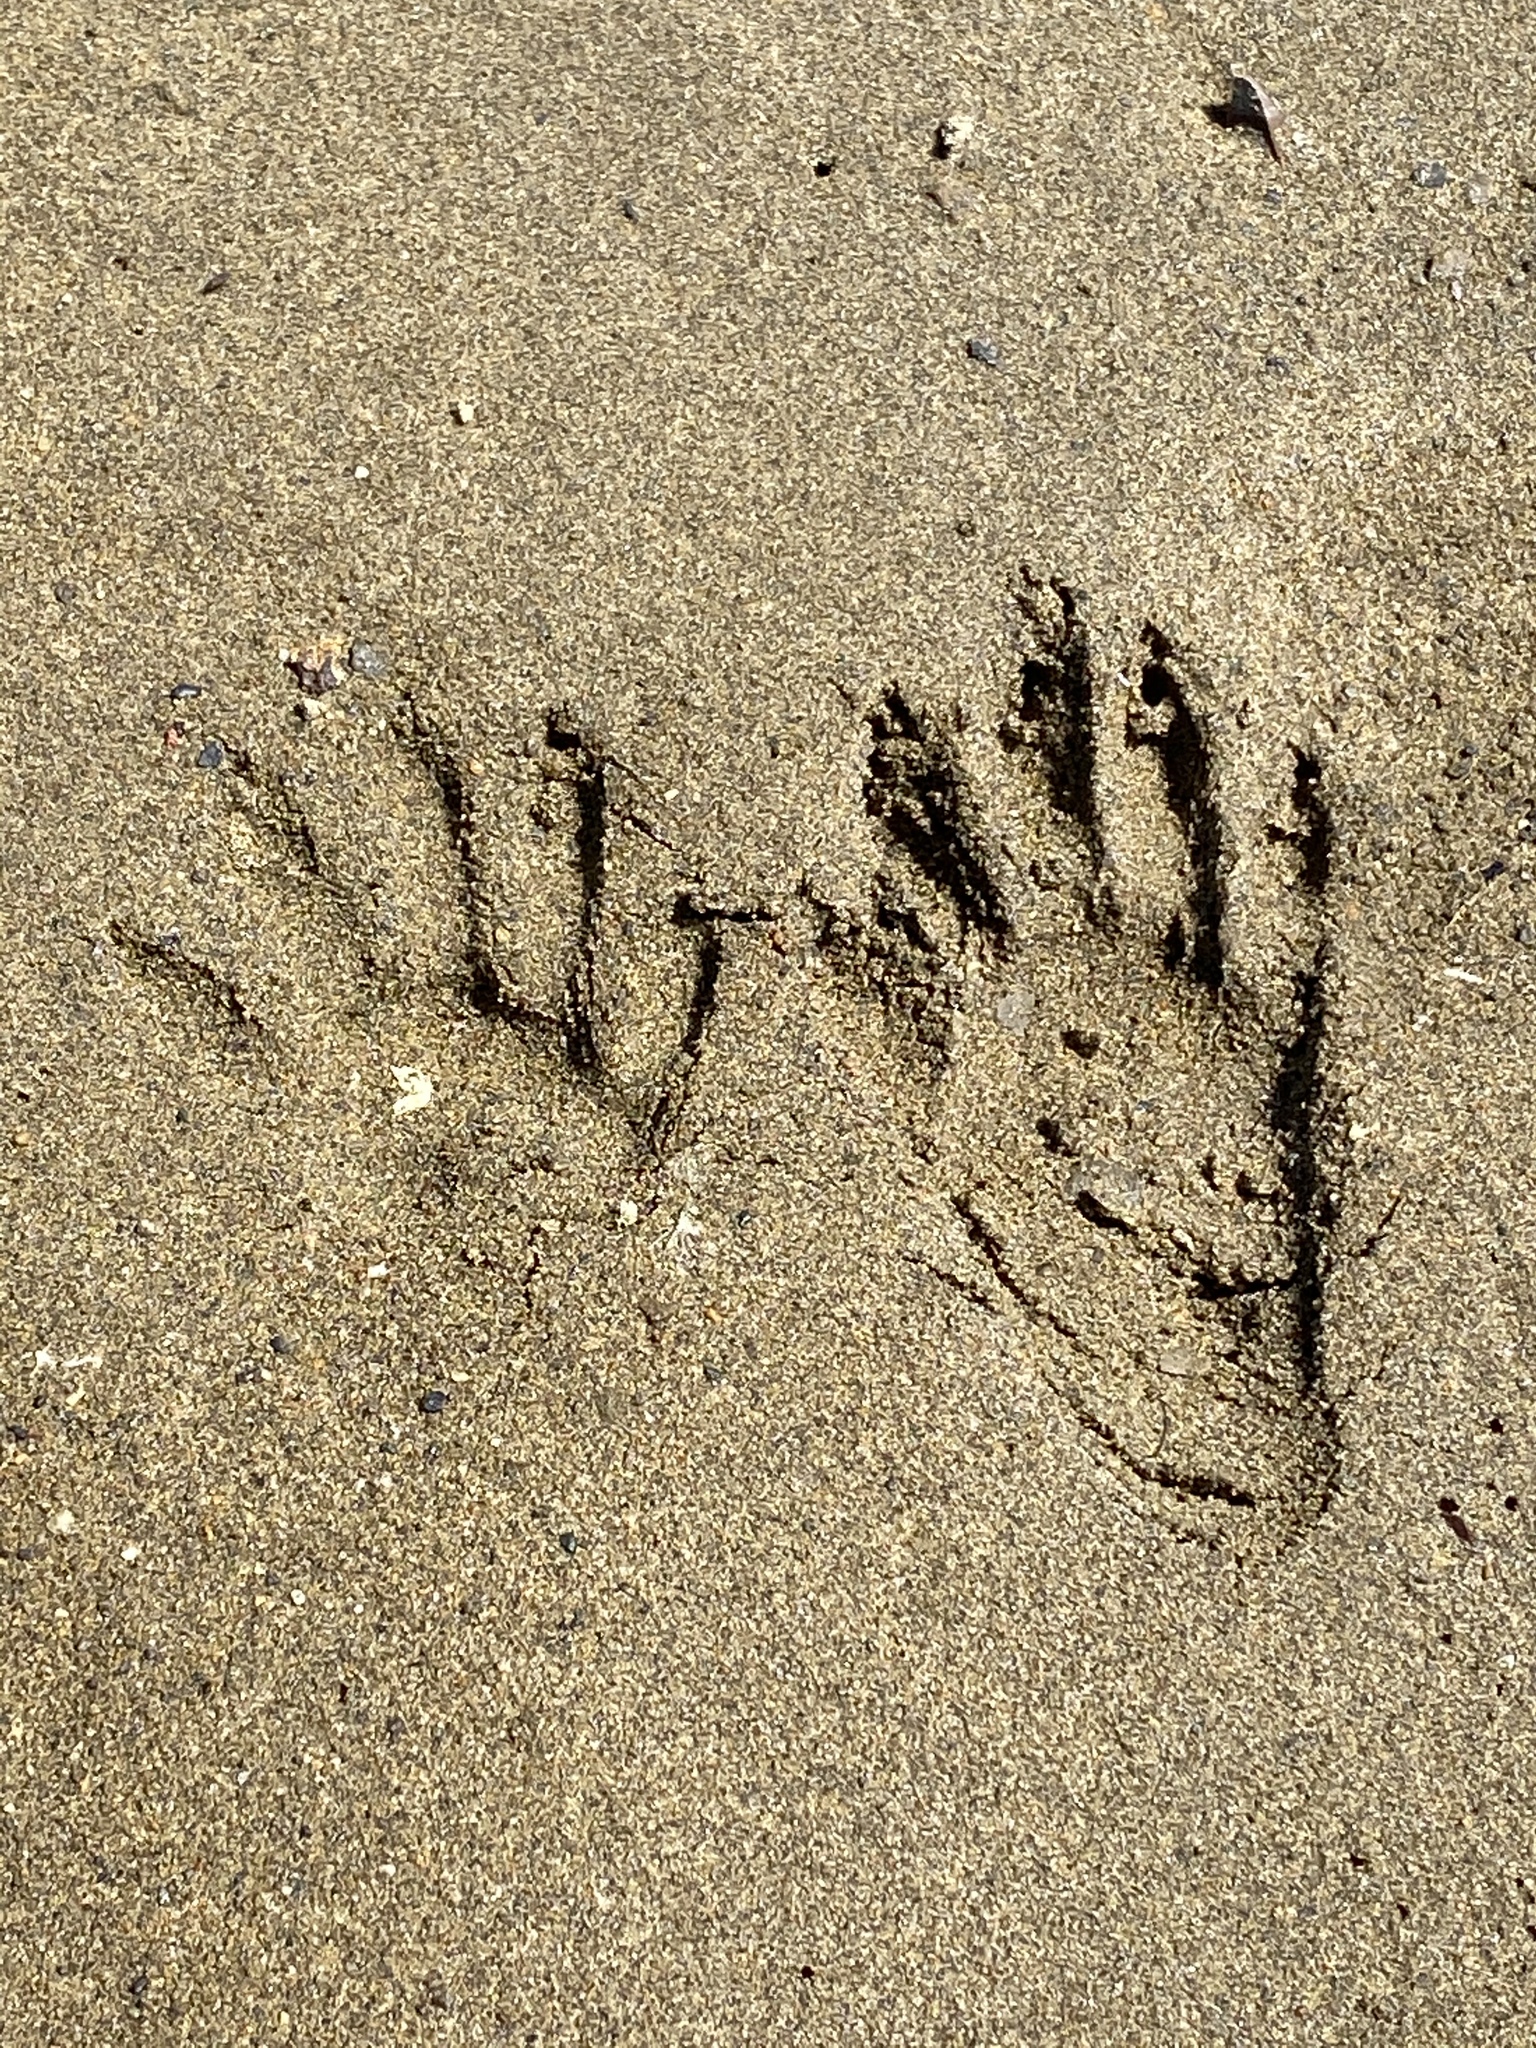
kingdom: Animalia
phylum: Chordata
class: Mammalia
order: Carnivora
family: Procyonidae
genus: Procyon
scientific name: Procyon lotor
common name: Raccoon
